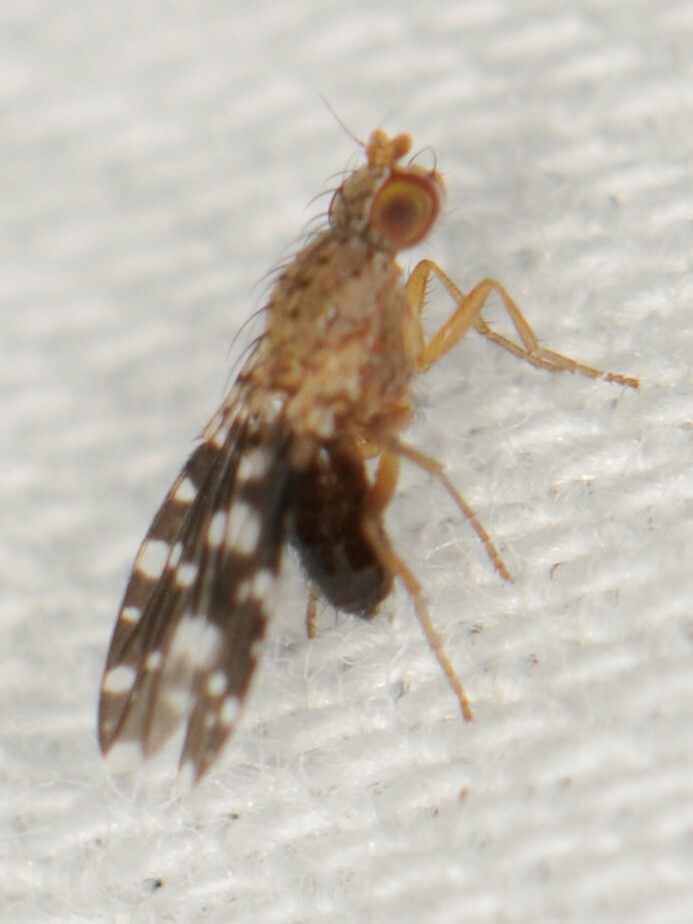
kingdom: Animalia
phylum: Arthropoda
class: Insecta
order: Diptera
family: Heleomyzidae
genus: Trixoscelis
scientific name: Trixoscelis polita
